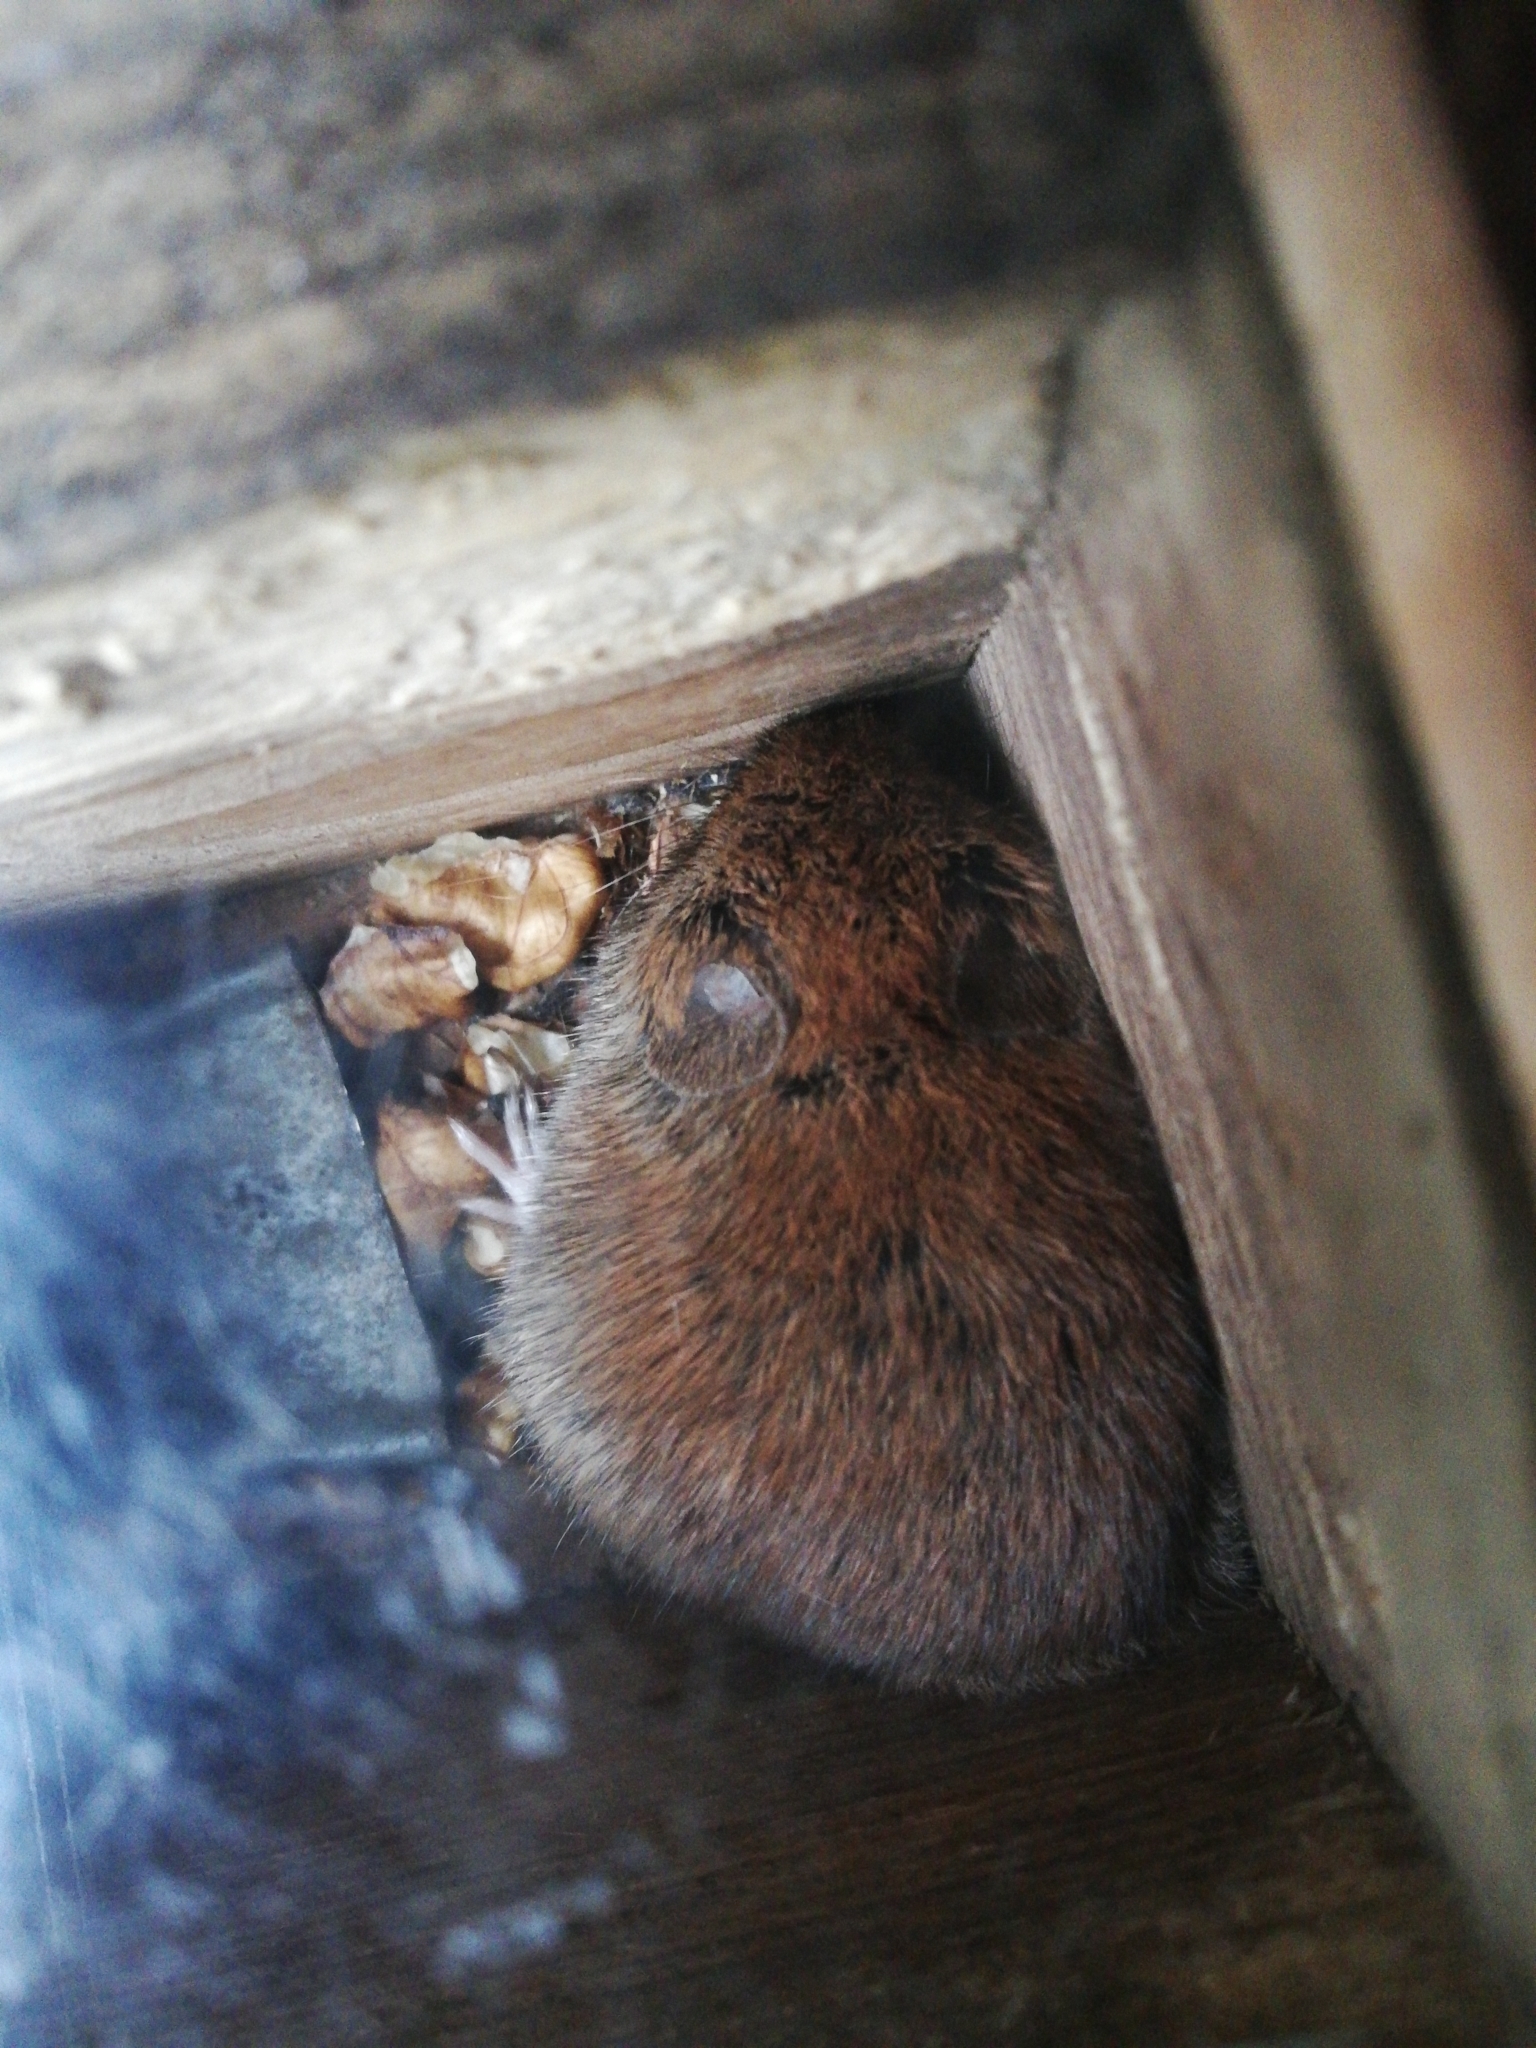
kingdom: Animalia
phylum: Chordata
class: Mammalia
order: Rodentia
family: Cricetidae
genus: Myodes
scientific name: Myodes glareolus
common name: Bank vole
